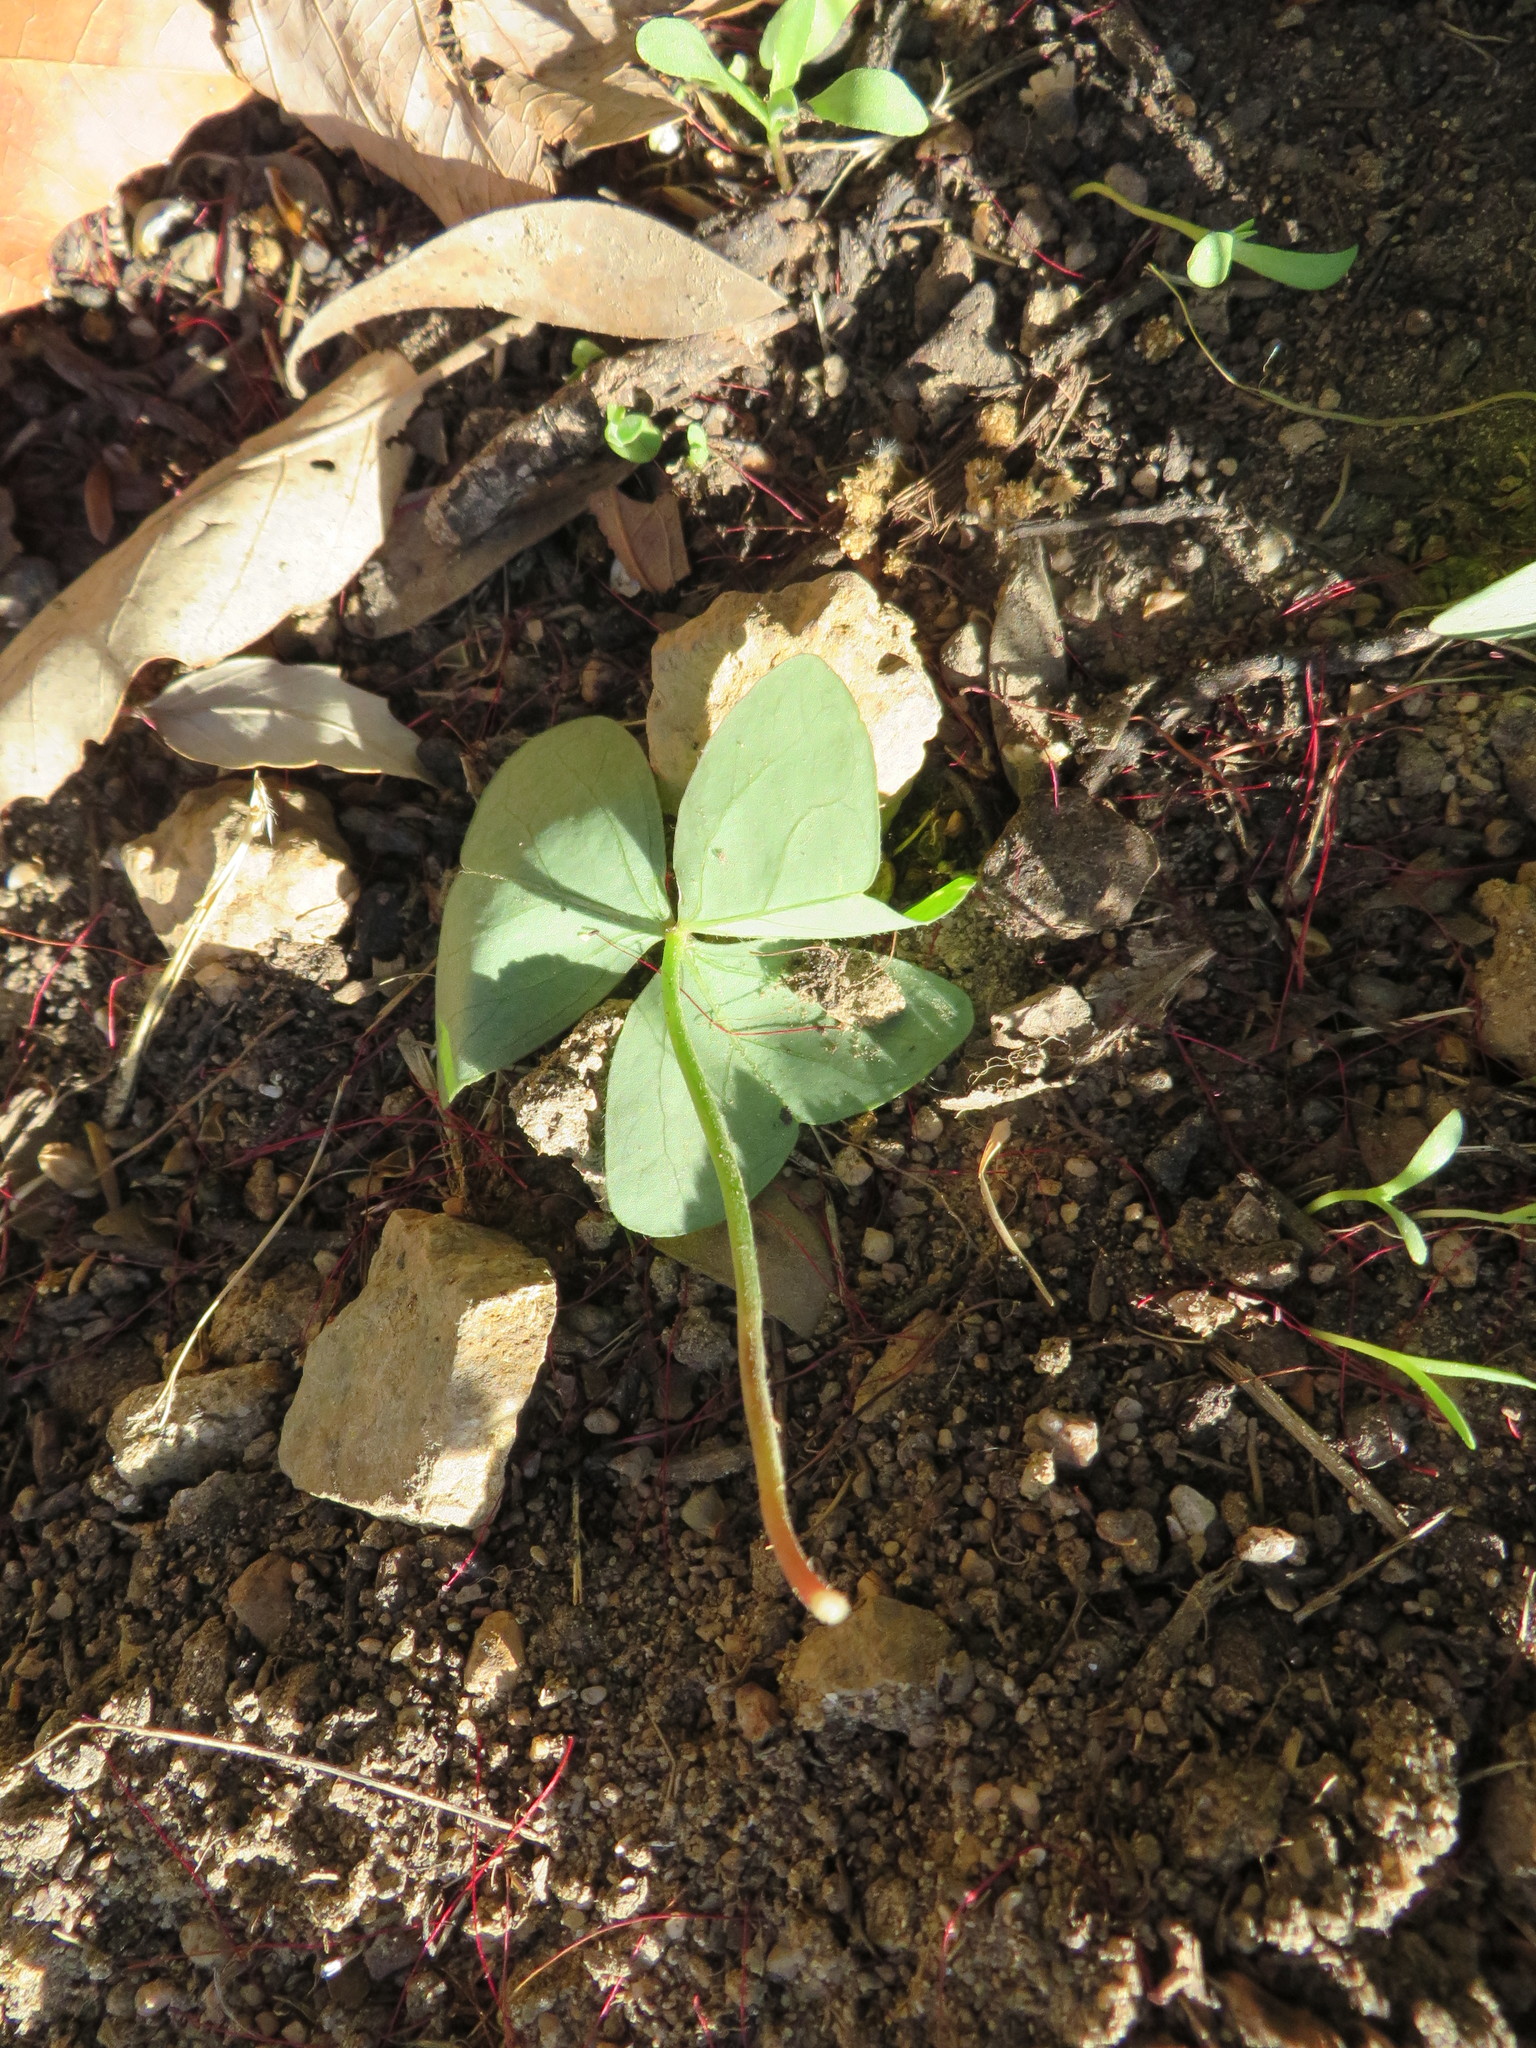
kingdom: Plantae
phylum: Tracheophyta
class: Magnoliopsida
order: Oxalidales
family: Oxalidaceae
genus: Oxalis
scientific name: Oxalis latifolia
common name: Garden pink-sorrel
